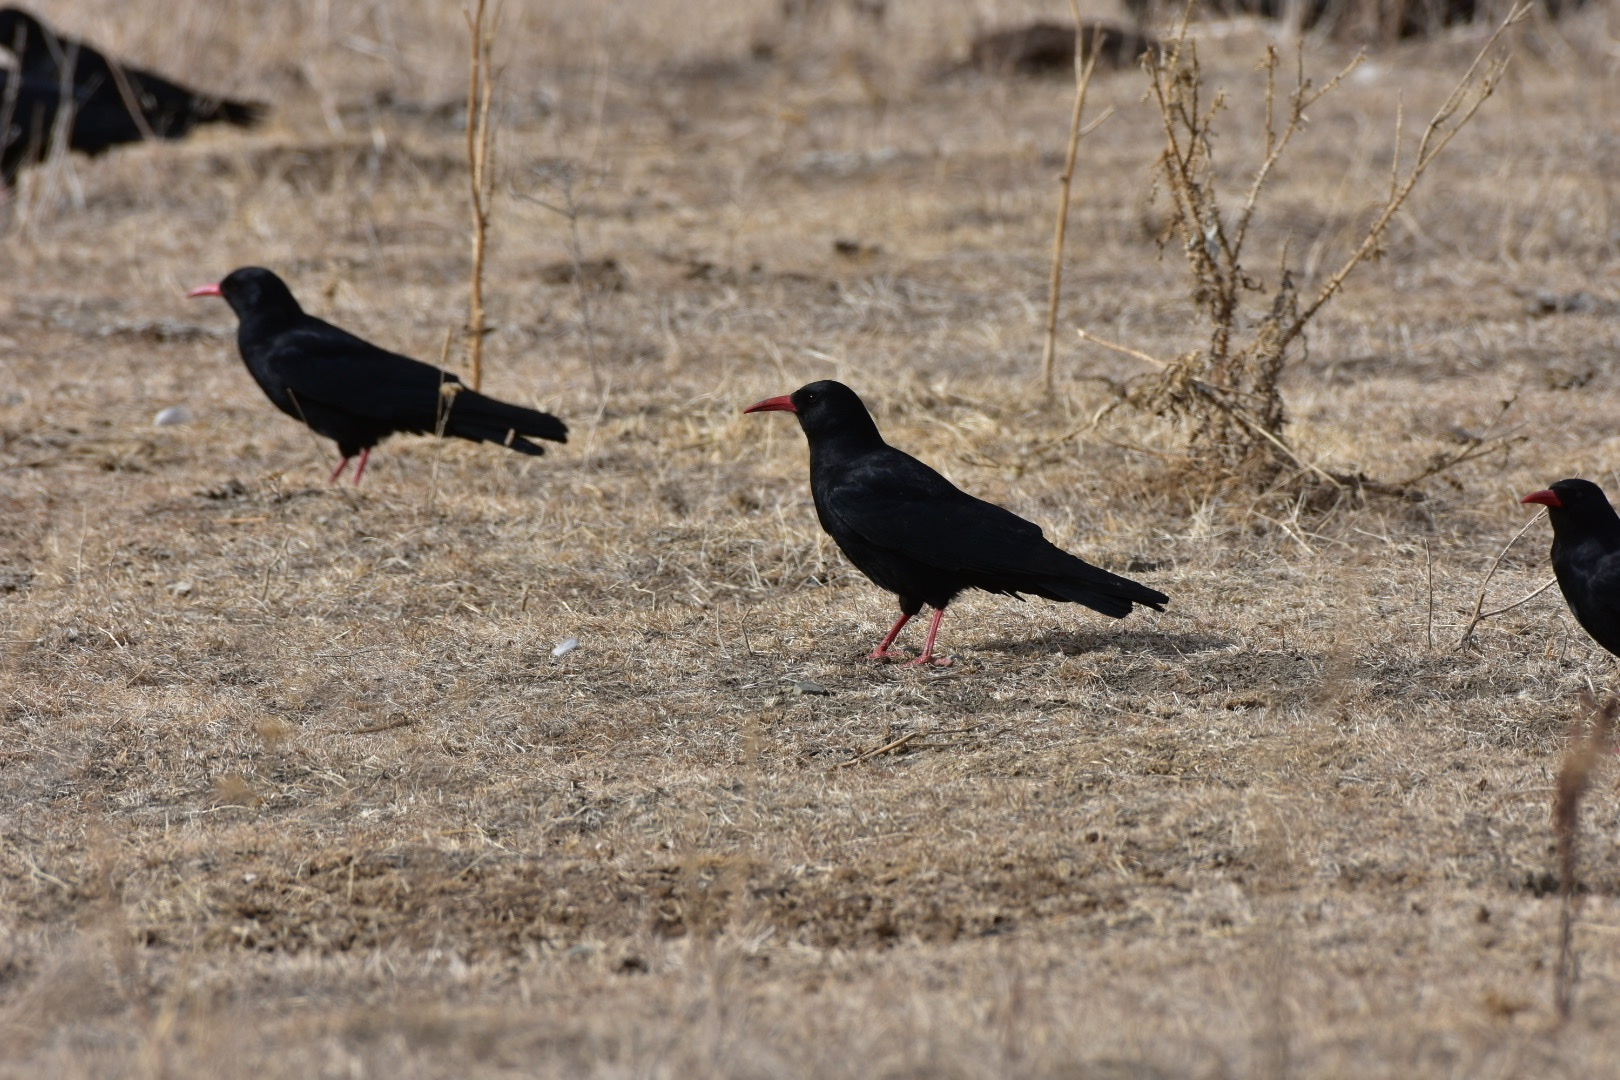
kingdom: Animalia
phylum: Chordata
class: Aves
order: Passeriformes
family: Corvidae
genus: Pyrrhocorax
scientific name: Pyrrhocorax pyrrhocorax
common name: Red-billed chough
